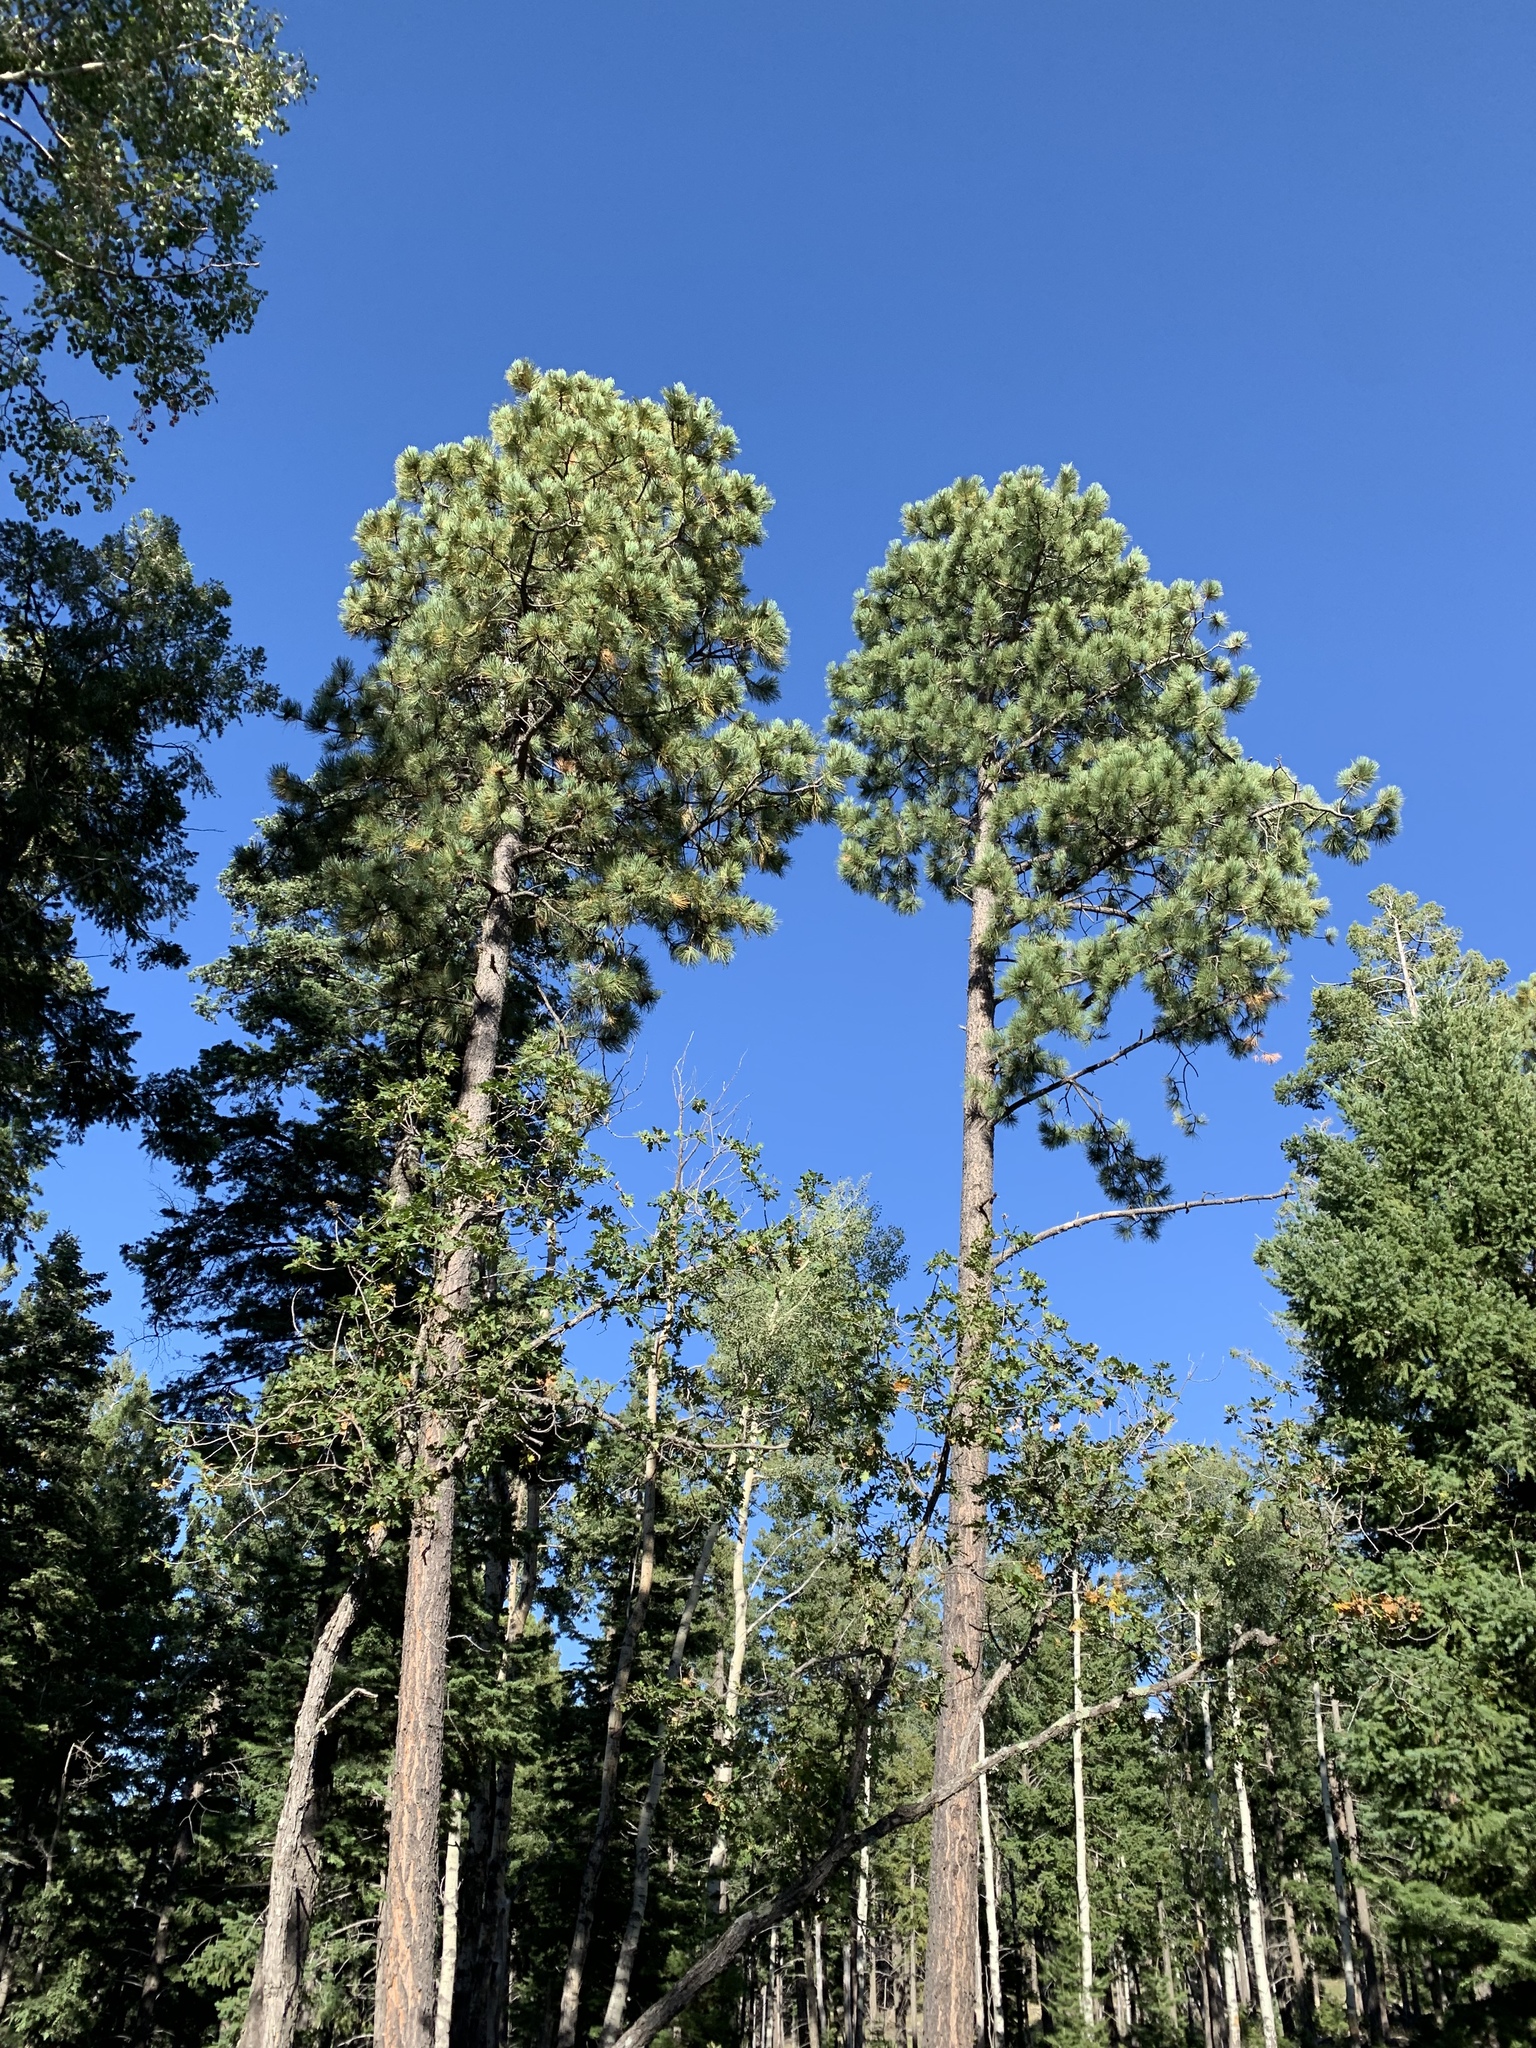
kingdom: Plantae
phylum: Tracheophyta
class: Pinopsida
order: Pinales
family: Pinaceae
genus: Pinus
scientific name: Pinus ponderosa
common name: Western yellow-pine
